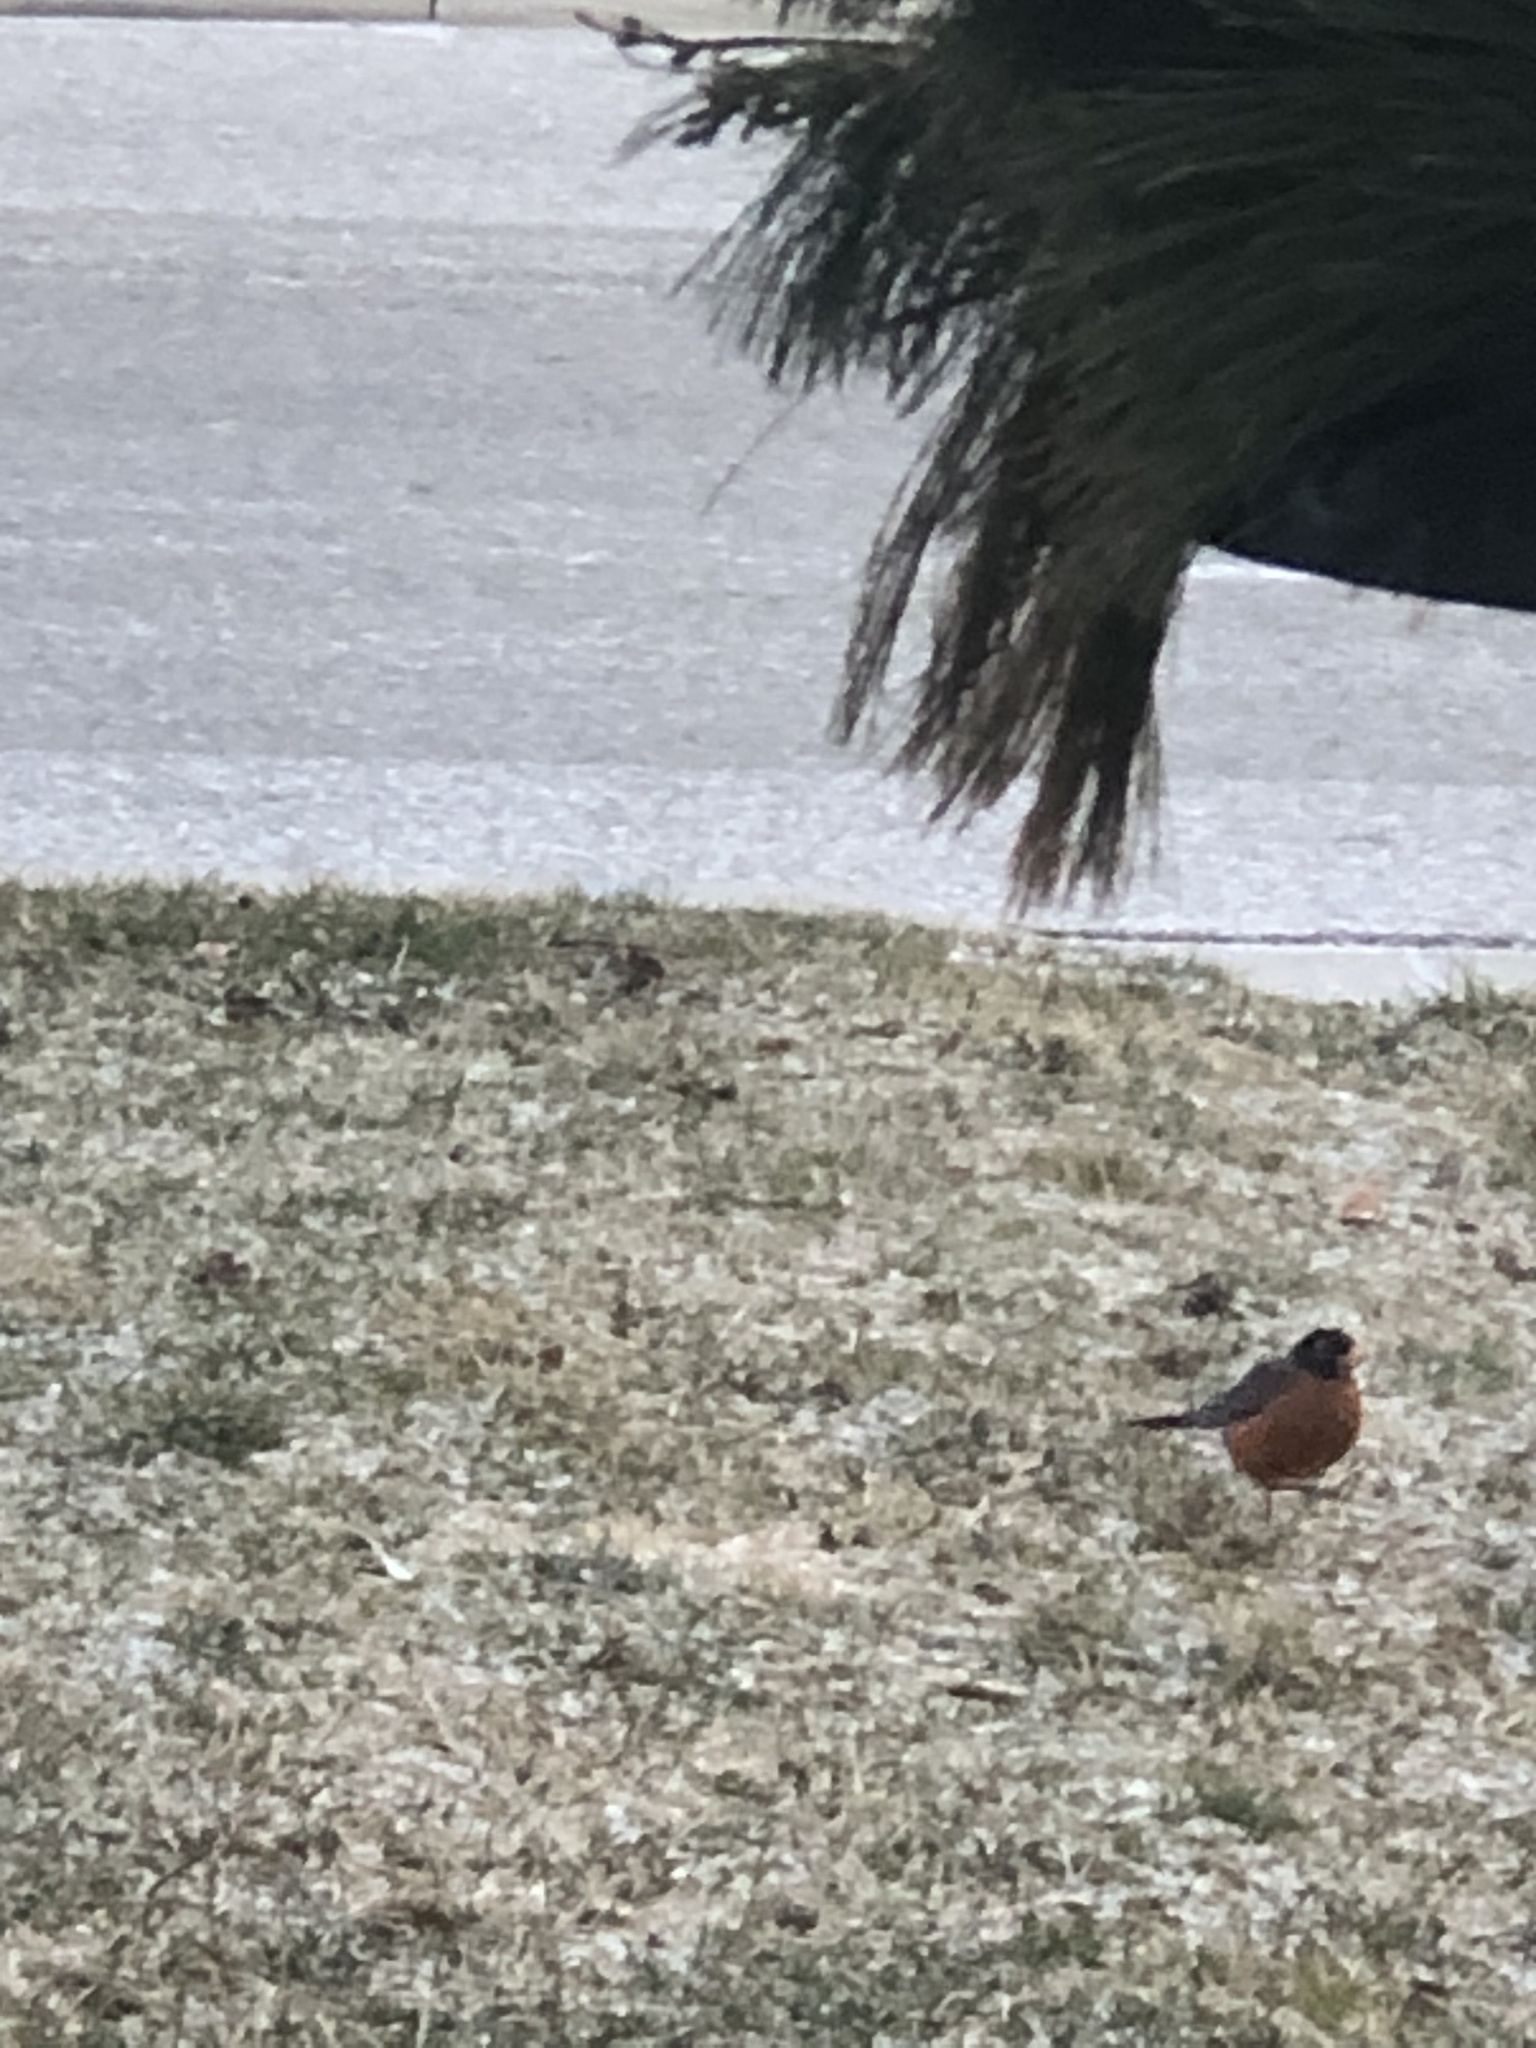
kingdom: Animalia
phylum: Chordata
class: Aves
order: Passeriformes
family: Turdidae
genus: Turdus
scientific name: Turdus migratorius
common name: American robin
